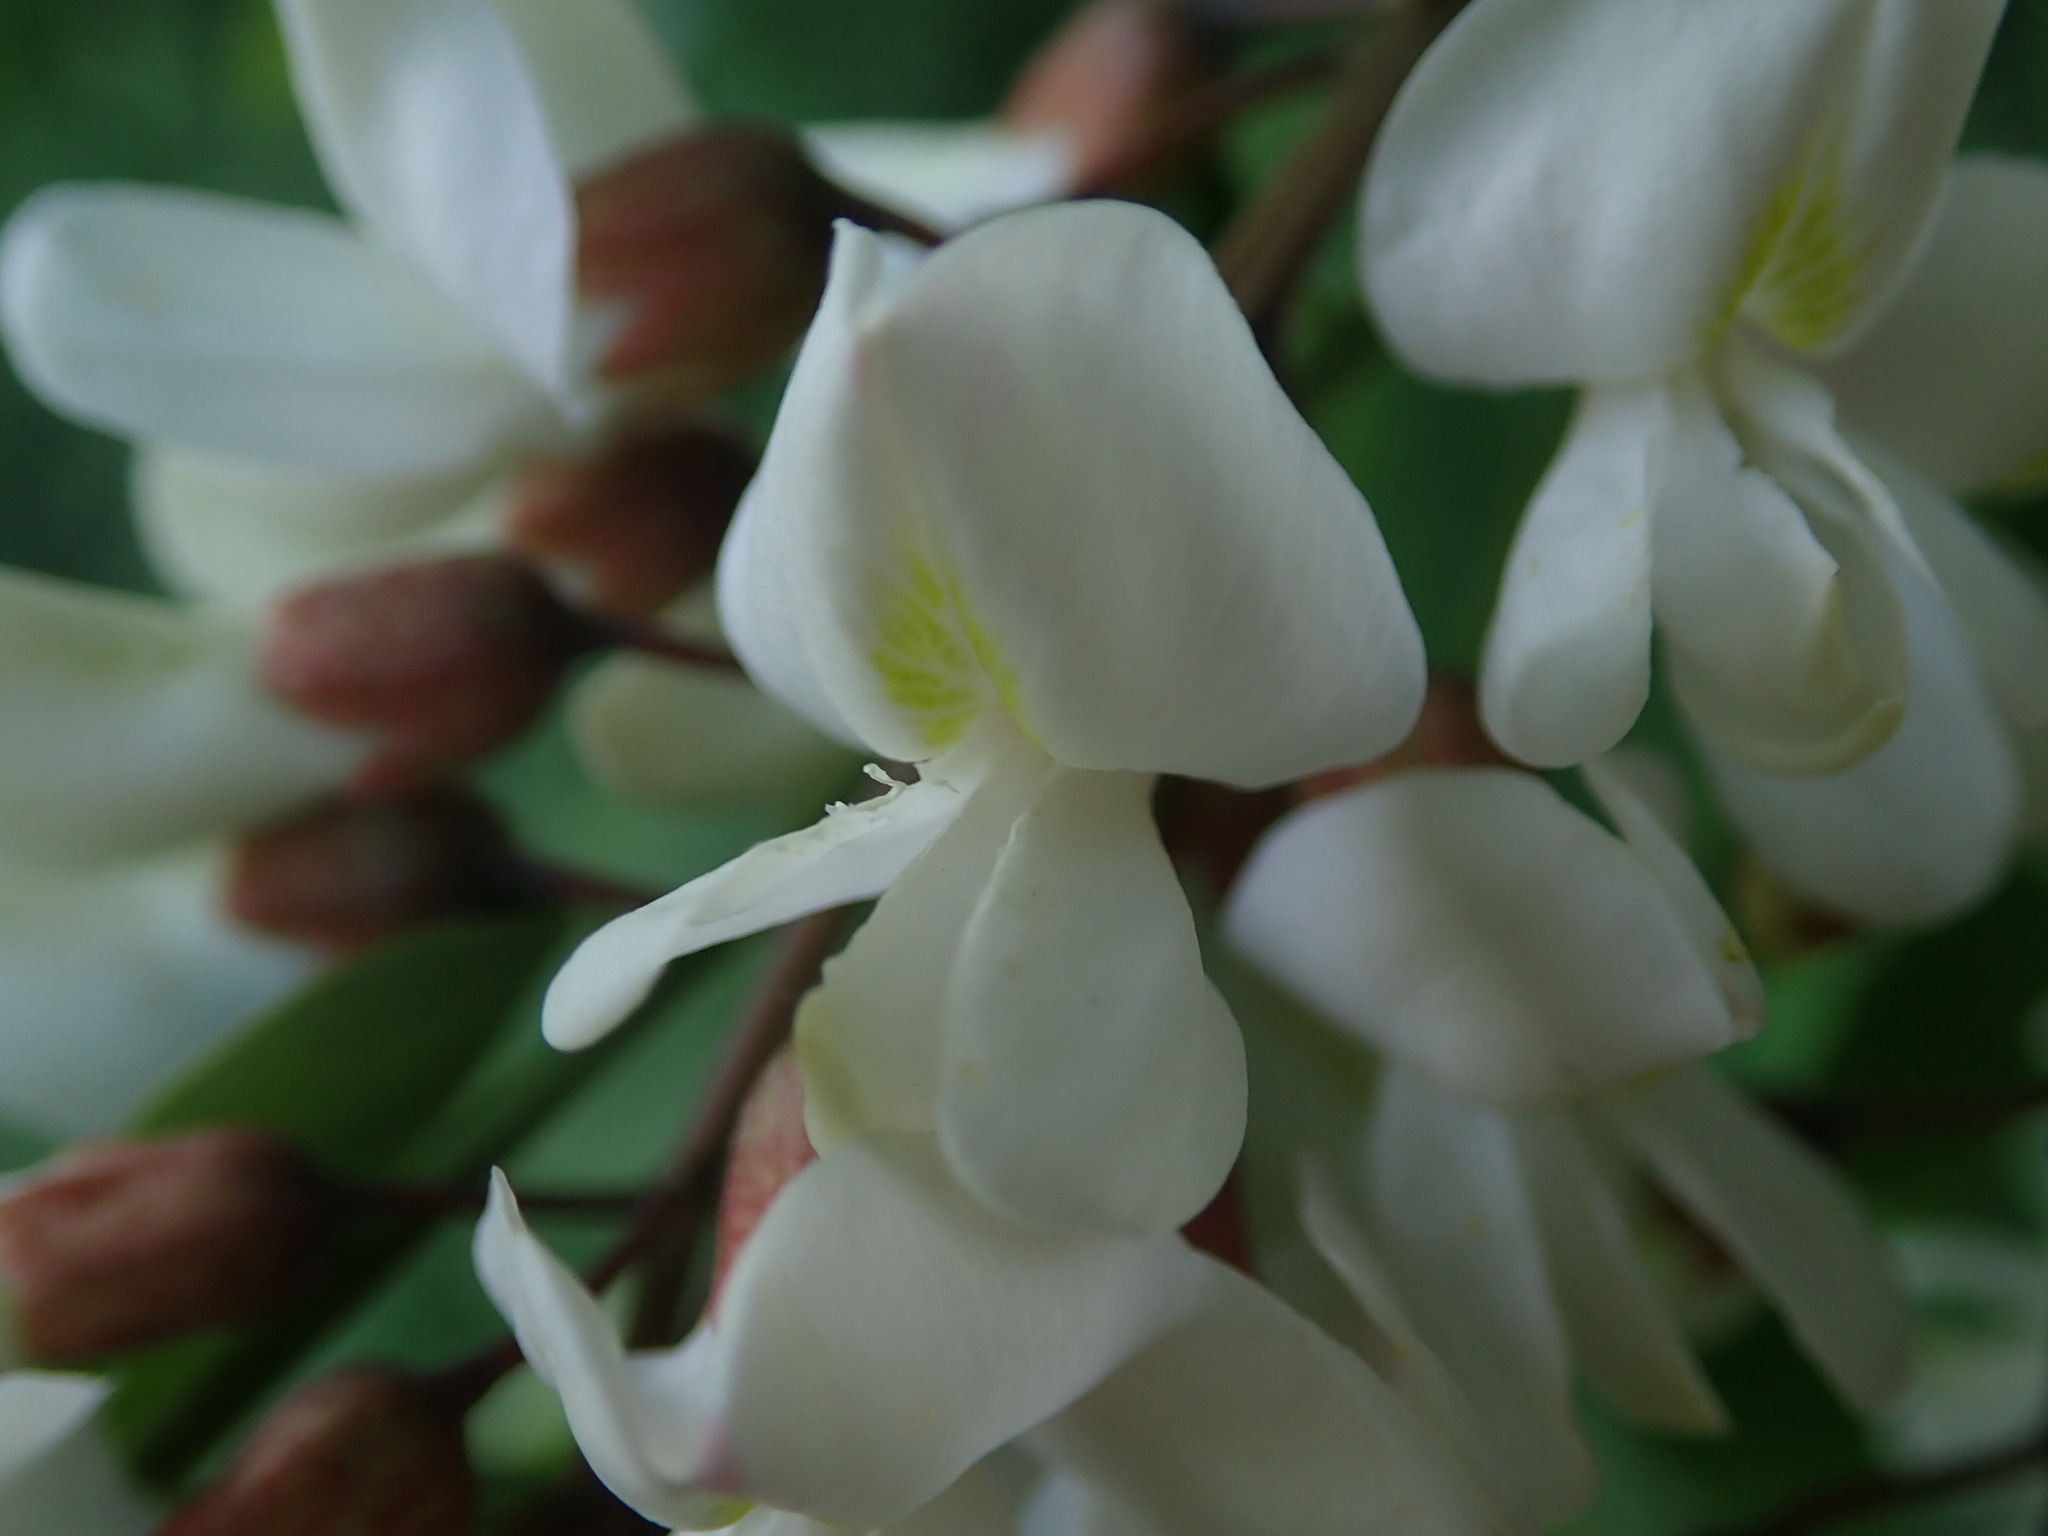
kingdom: Plantae
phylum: Tracheophyta
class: Magnoliopsida
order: Fabales
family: Fabaceae
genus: Robinia
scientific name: Robinia pseudoacacia
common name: Black locust
